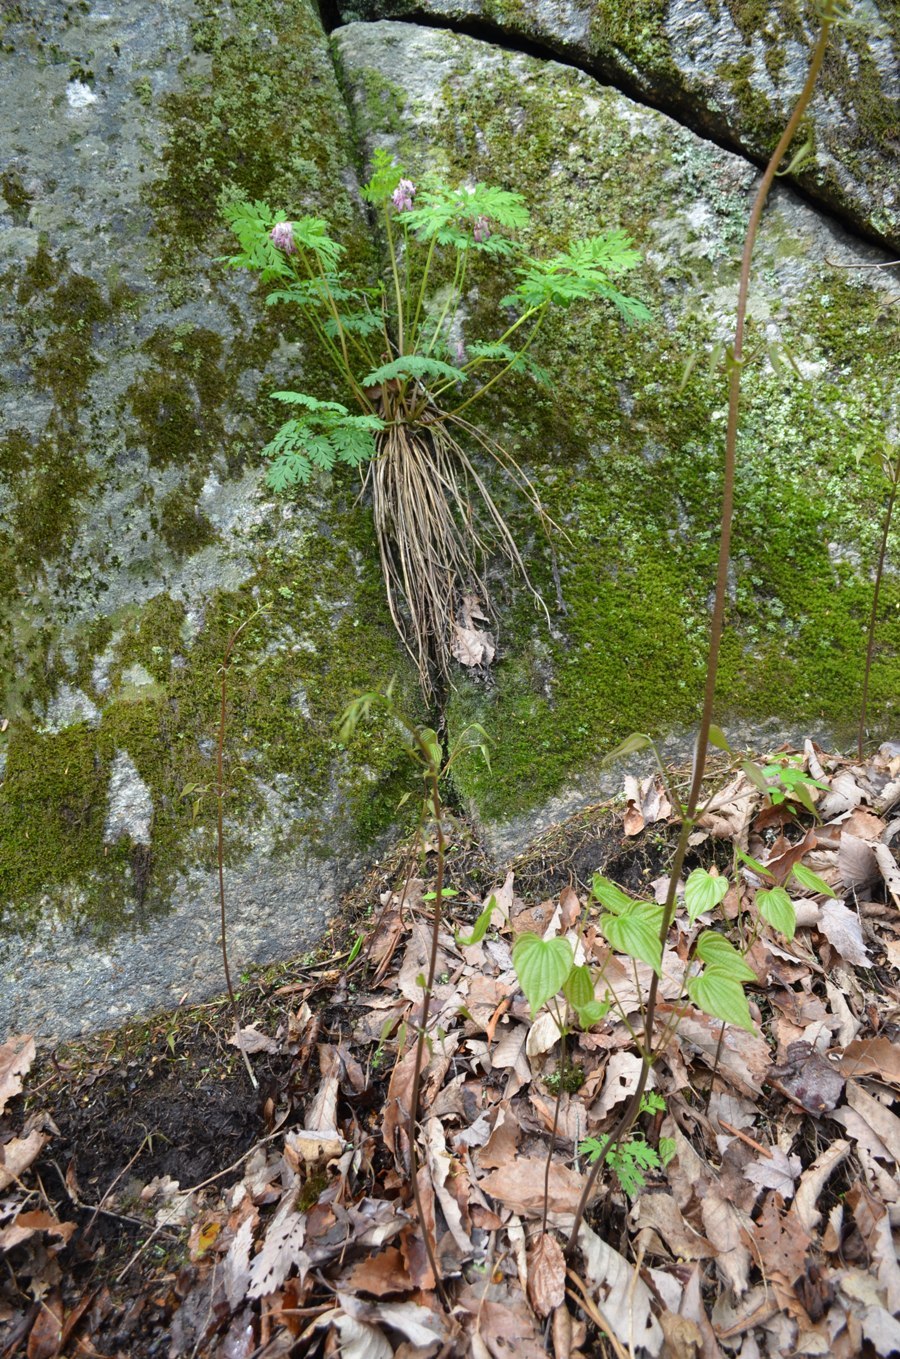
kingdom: Plantae
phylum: Tracheophyta
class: Magnoliopsida
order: Ranunculales
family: Papaveraceae
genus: Dicentra
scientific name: Dicentra eximia
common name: Turkey-corn
